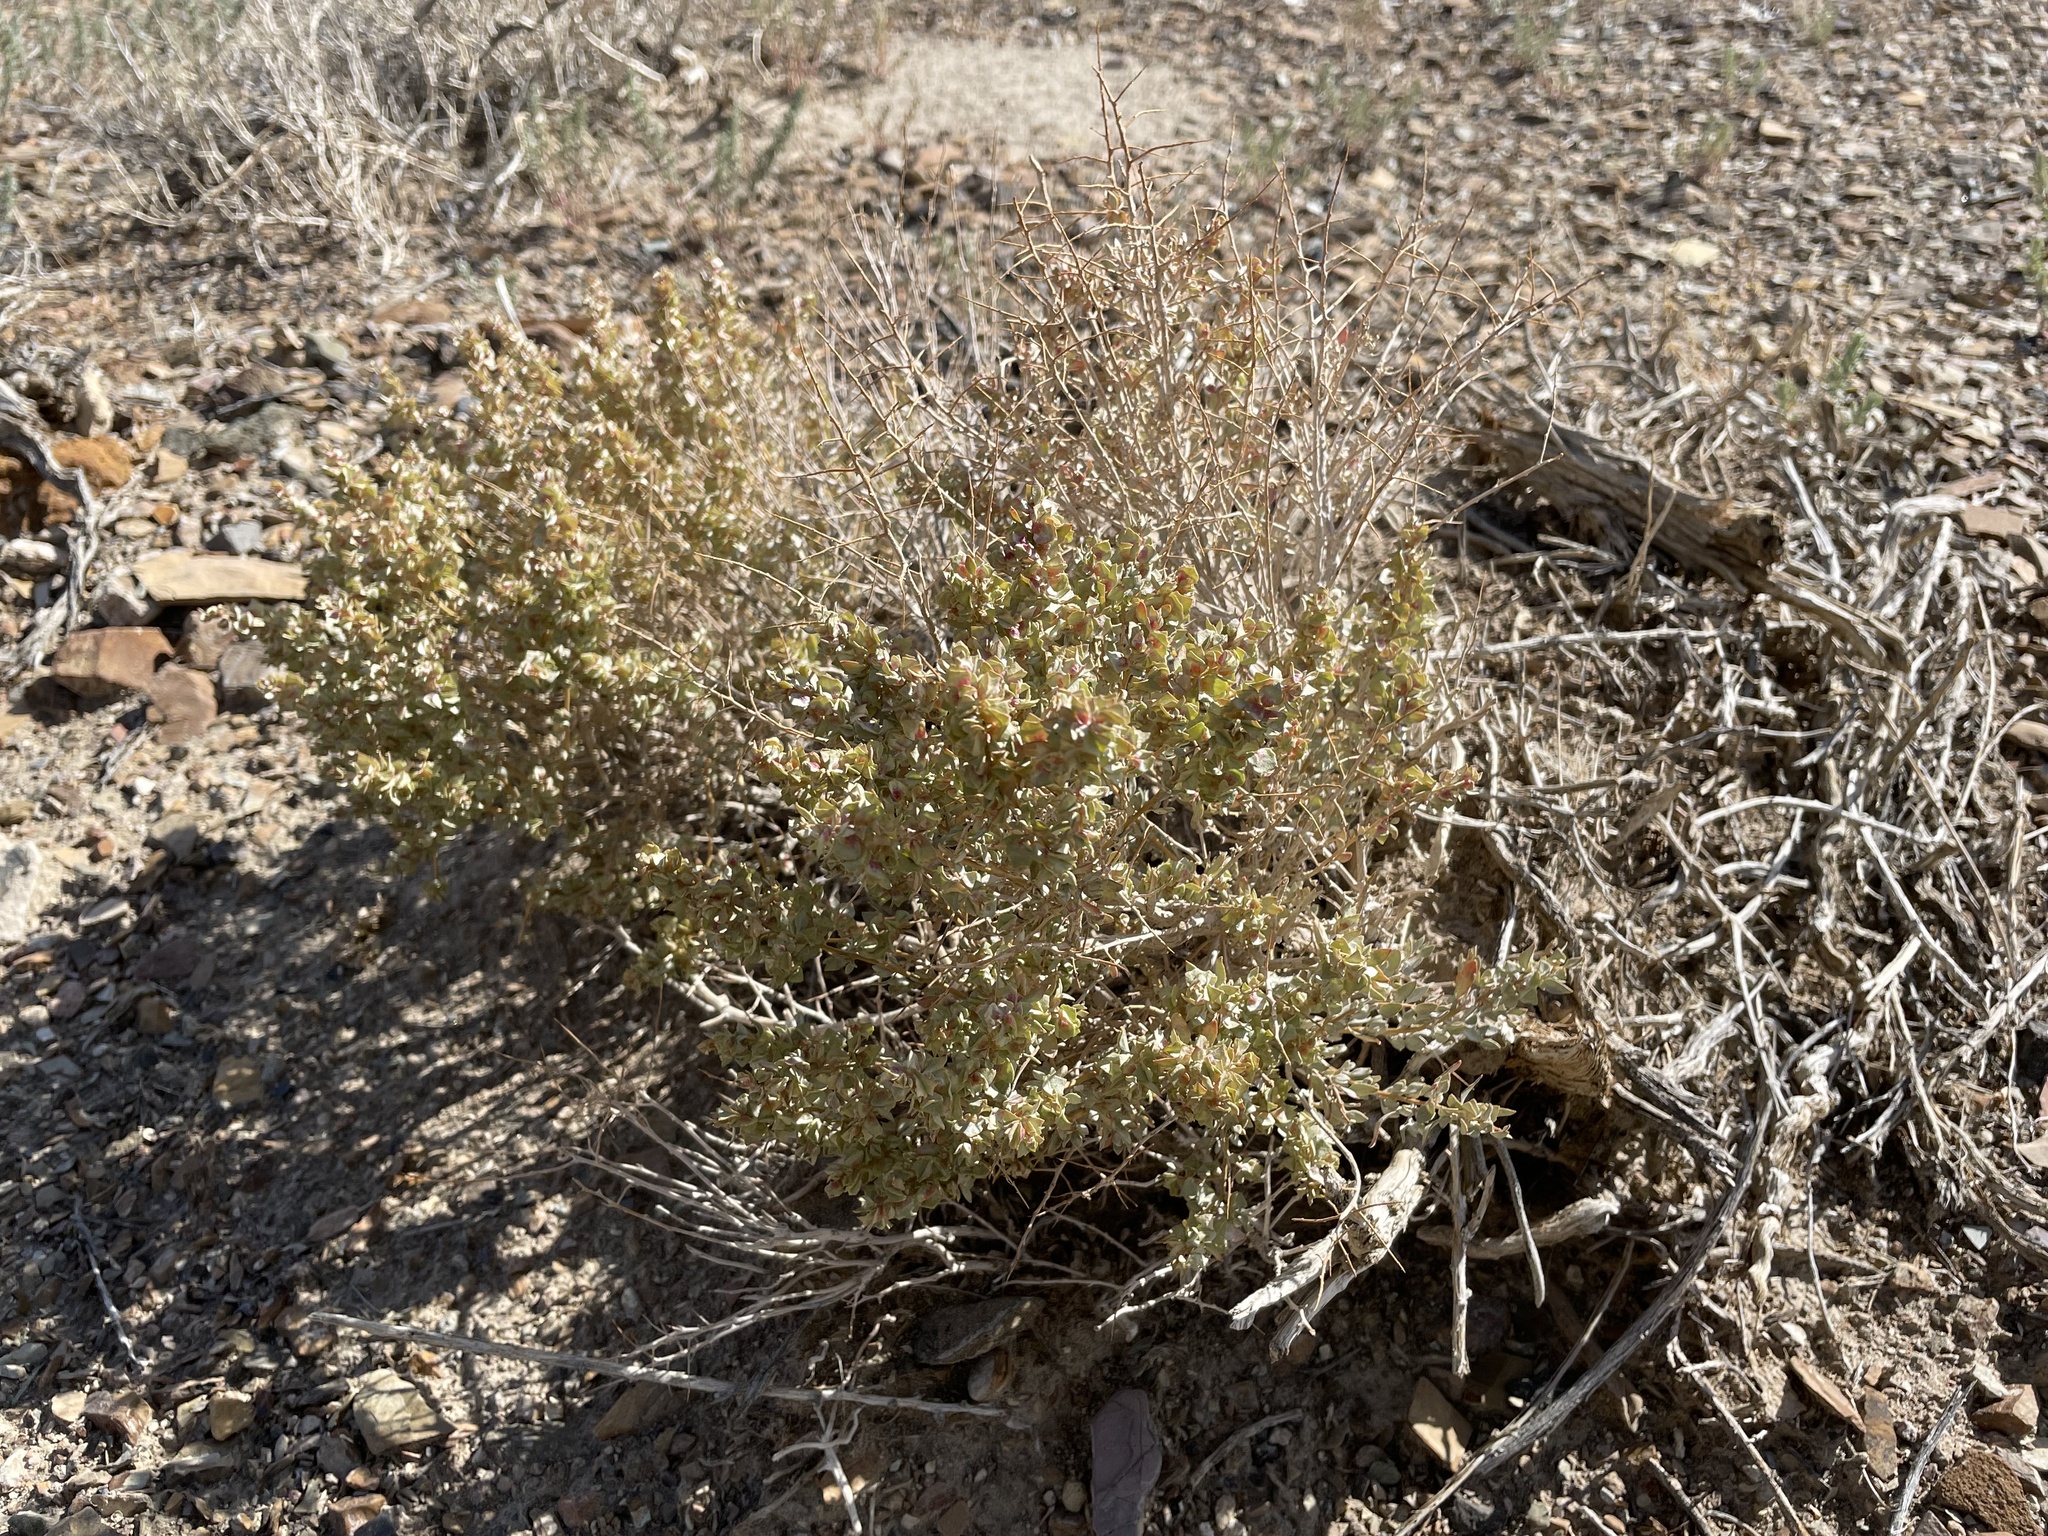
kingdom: Plantae
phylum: Tracheophyta
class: Magnoliopsida
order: Caryophyllales
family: Amaranthaceae
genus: Atriplex
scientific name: Atriplex confertifolia
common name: Shadscale
